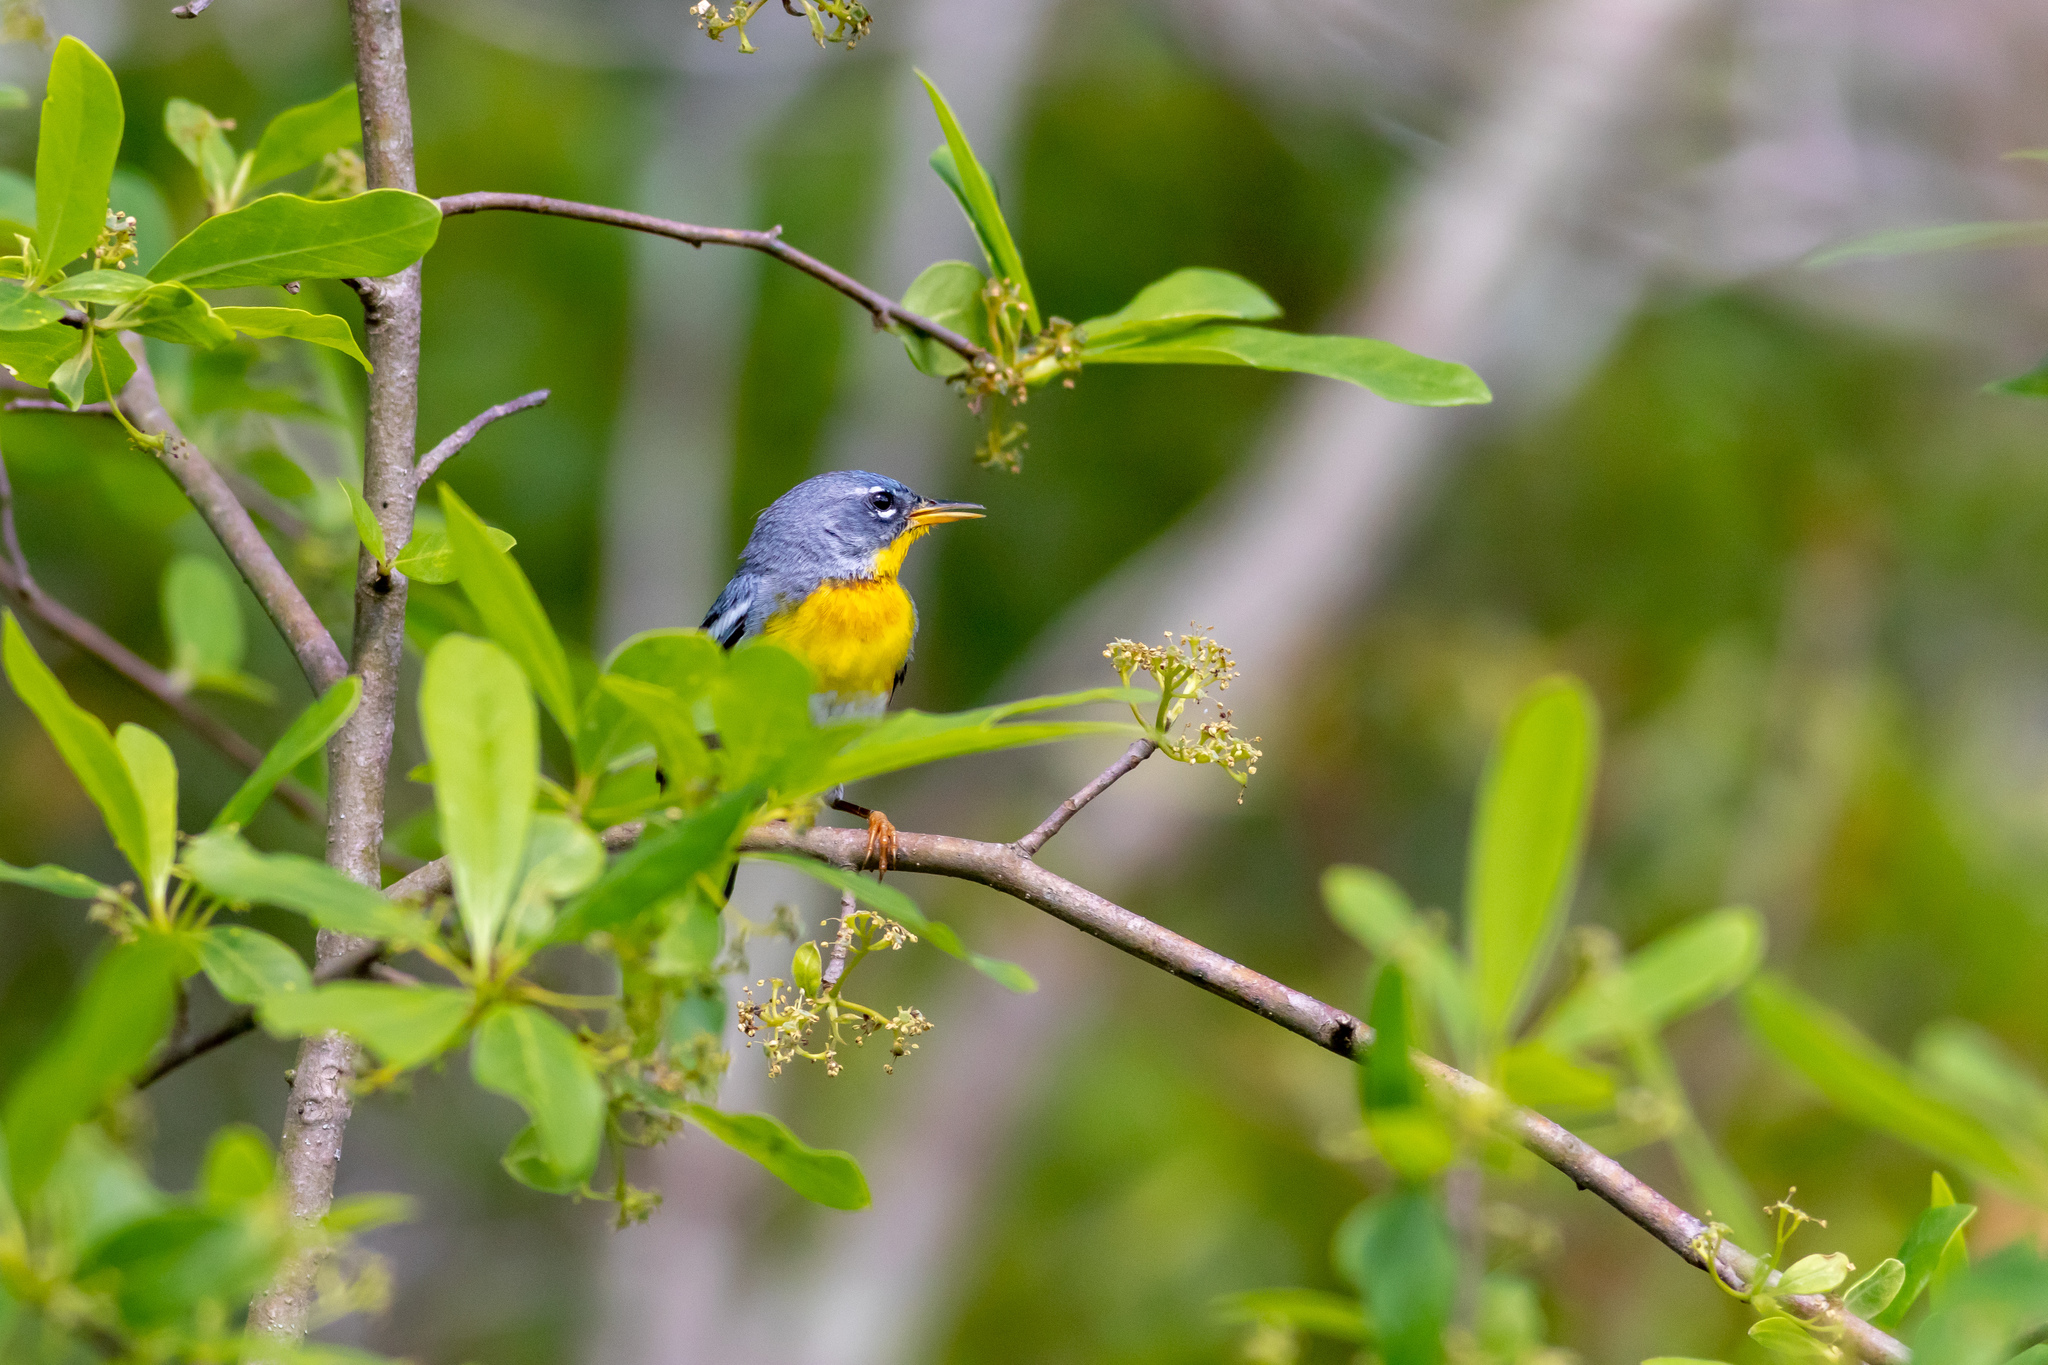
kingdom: Animalia
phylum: Chordata
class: Aves
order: Passeriformes
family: Parulidae
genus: Setophaga
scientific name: Setophaga americana
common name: Northern parula
